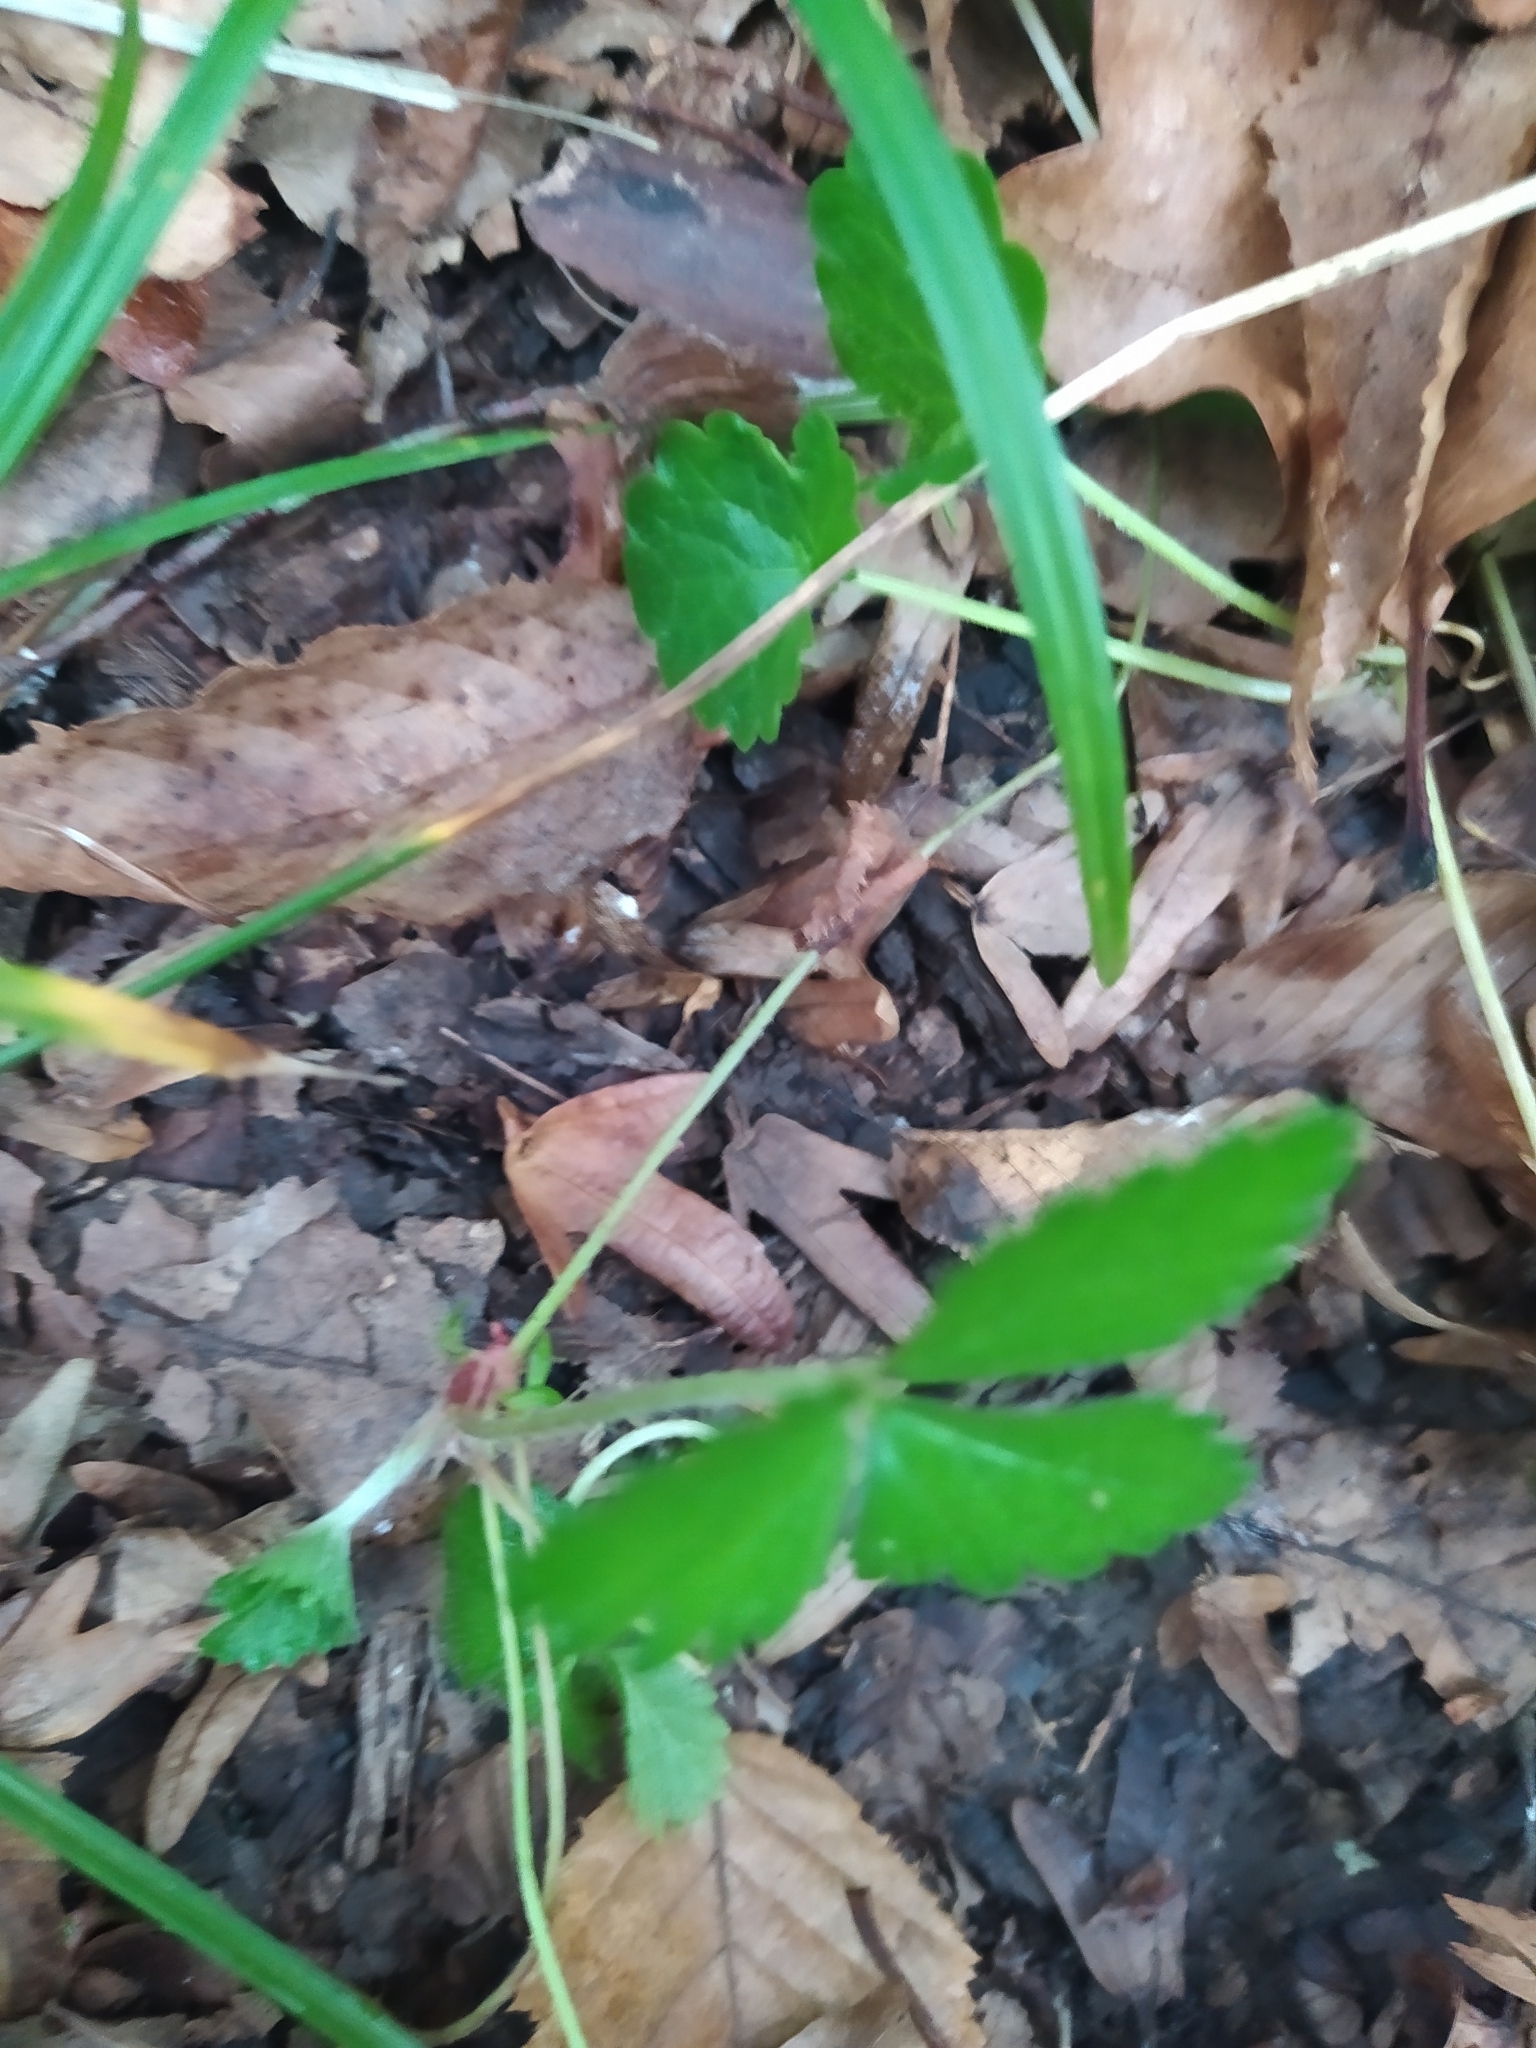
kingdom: Plantae
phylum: Tracheophyta
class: Magnoliopsida
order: Rosales
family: Rosaceae
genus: Potentilla
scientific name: Potentilla indica
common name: Yellow-flowered strawberry
